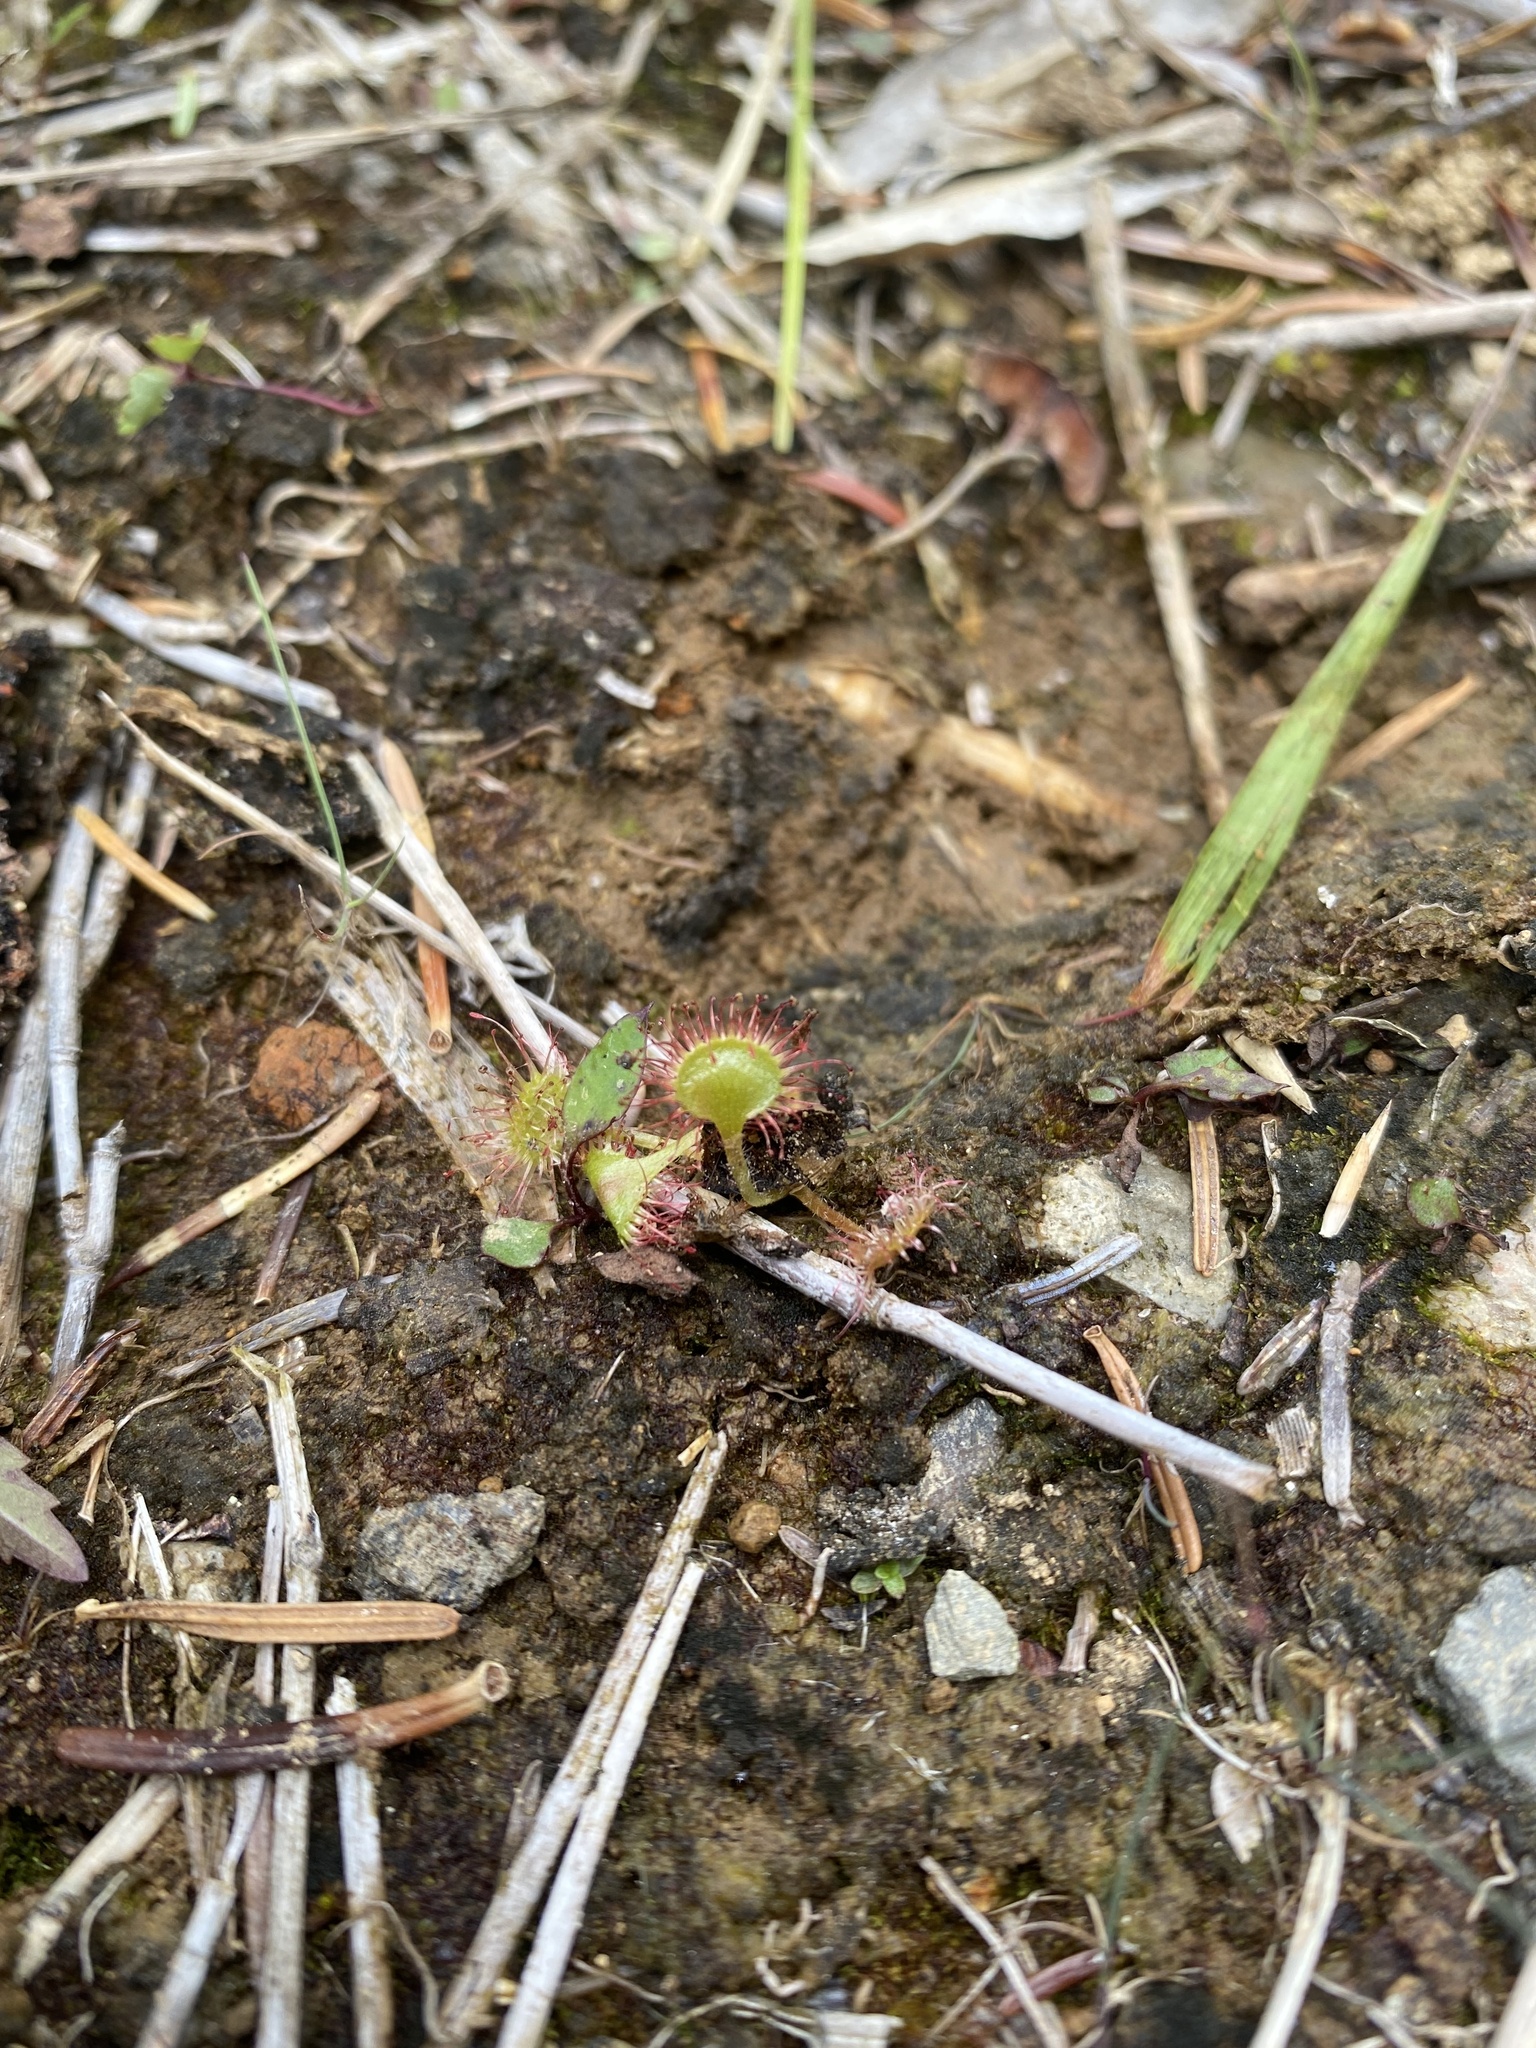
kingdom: Plantae
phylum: Tracheophyta
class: Magnoliopsida
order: Caryophyllales
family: Droseraceae
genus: Drosera
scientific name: Drosera rotundifolia
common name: Round-leaved sundew
